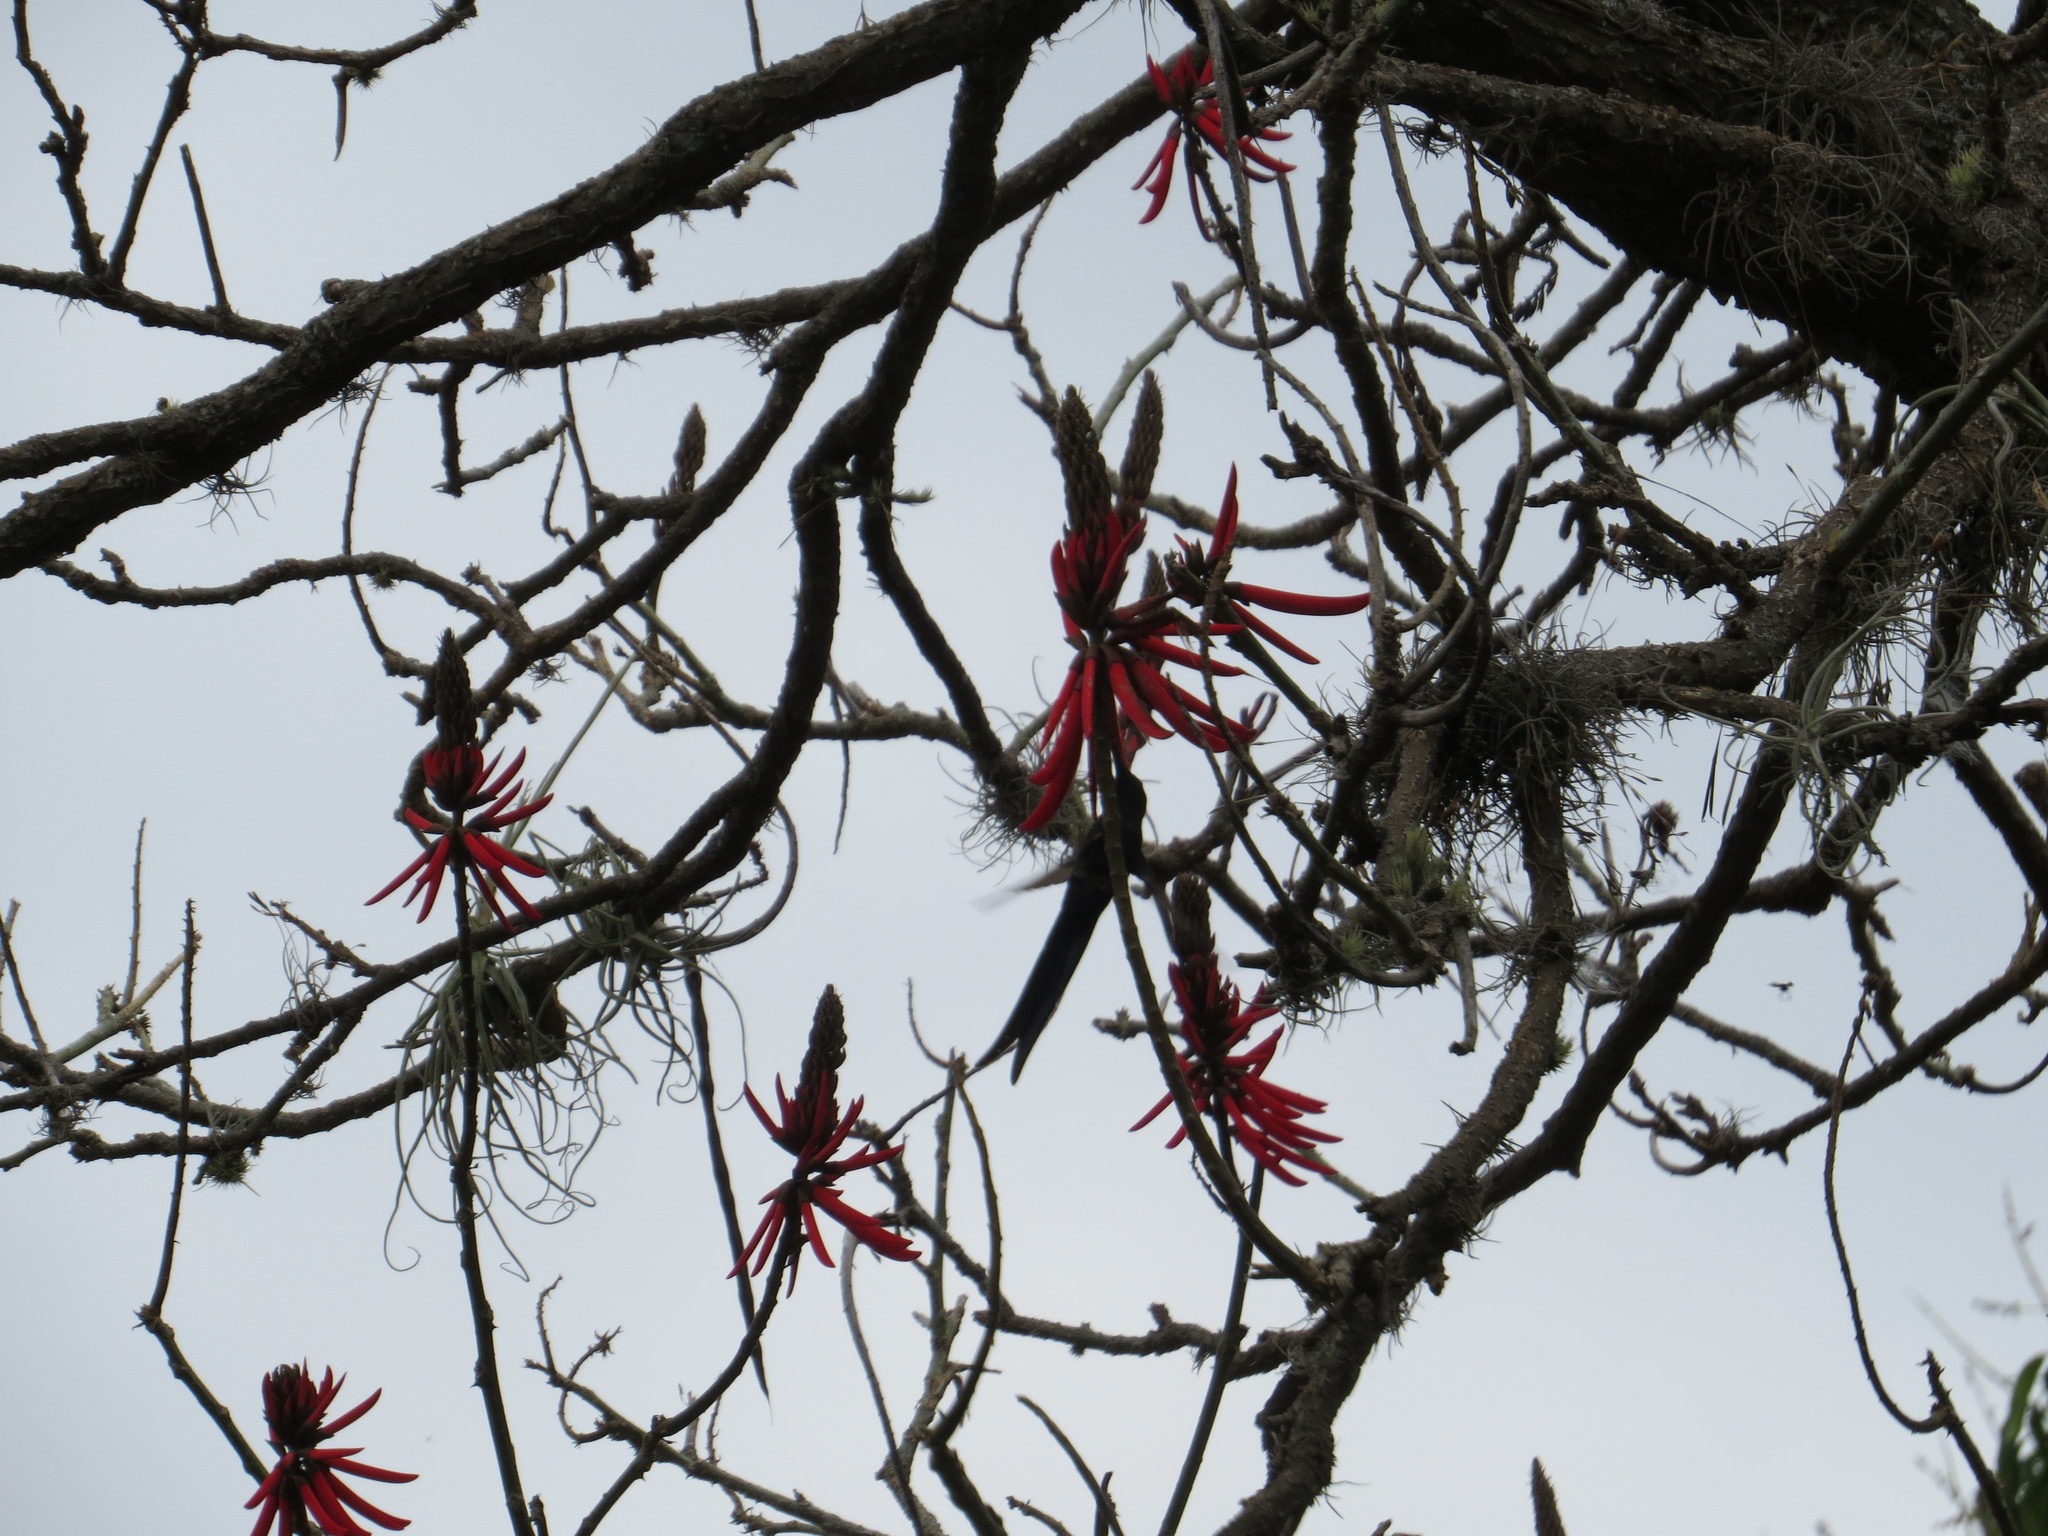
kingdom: Plantae
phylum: Tracheophyta
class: Magnoliopsida
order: Fabales
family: Fabaceae
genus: Erythrina
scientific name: Erythrina speciosa
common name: Coral tree
